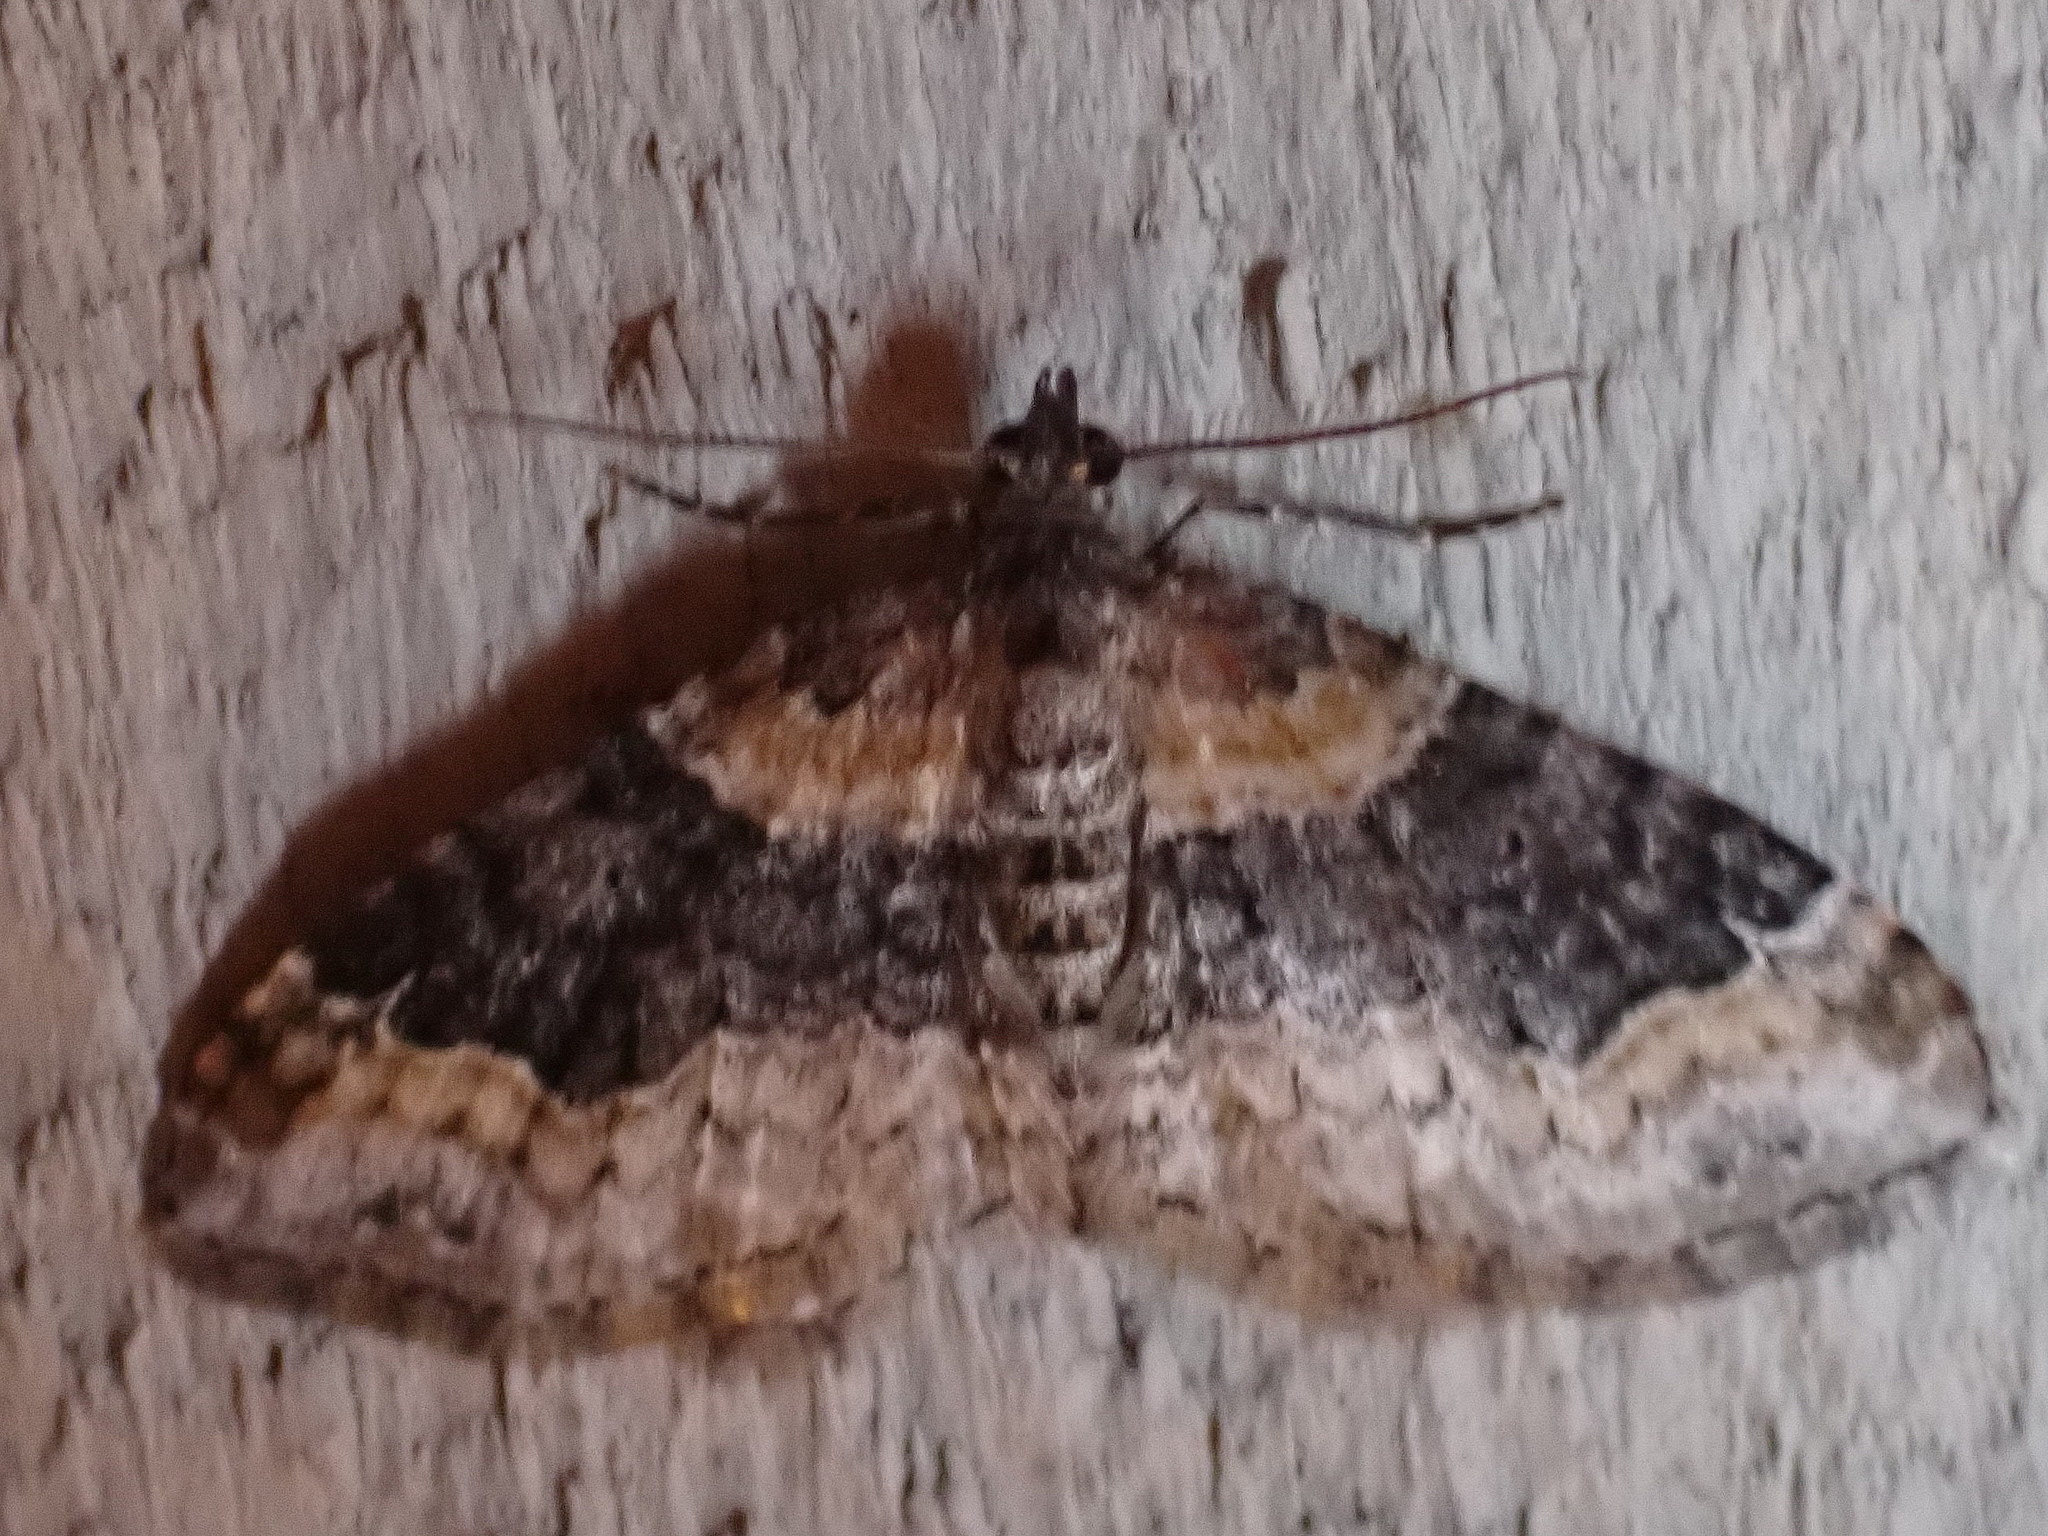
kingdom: Animalia
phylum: Arthropoda
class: Insecta
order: Lepidoptera
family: Geometridae
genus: Xanthorhoe
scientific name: Xanthorhoe ferrugata
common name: Dark-barred twin-spot carpet
